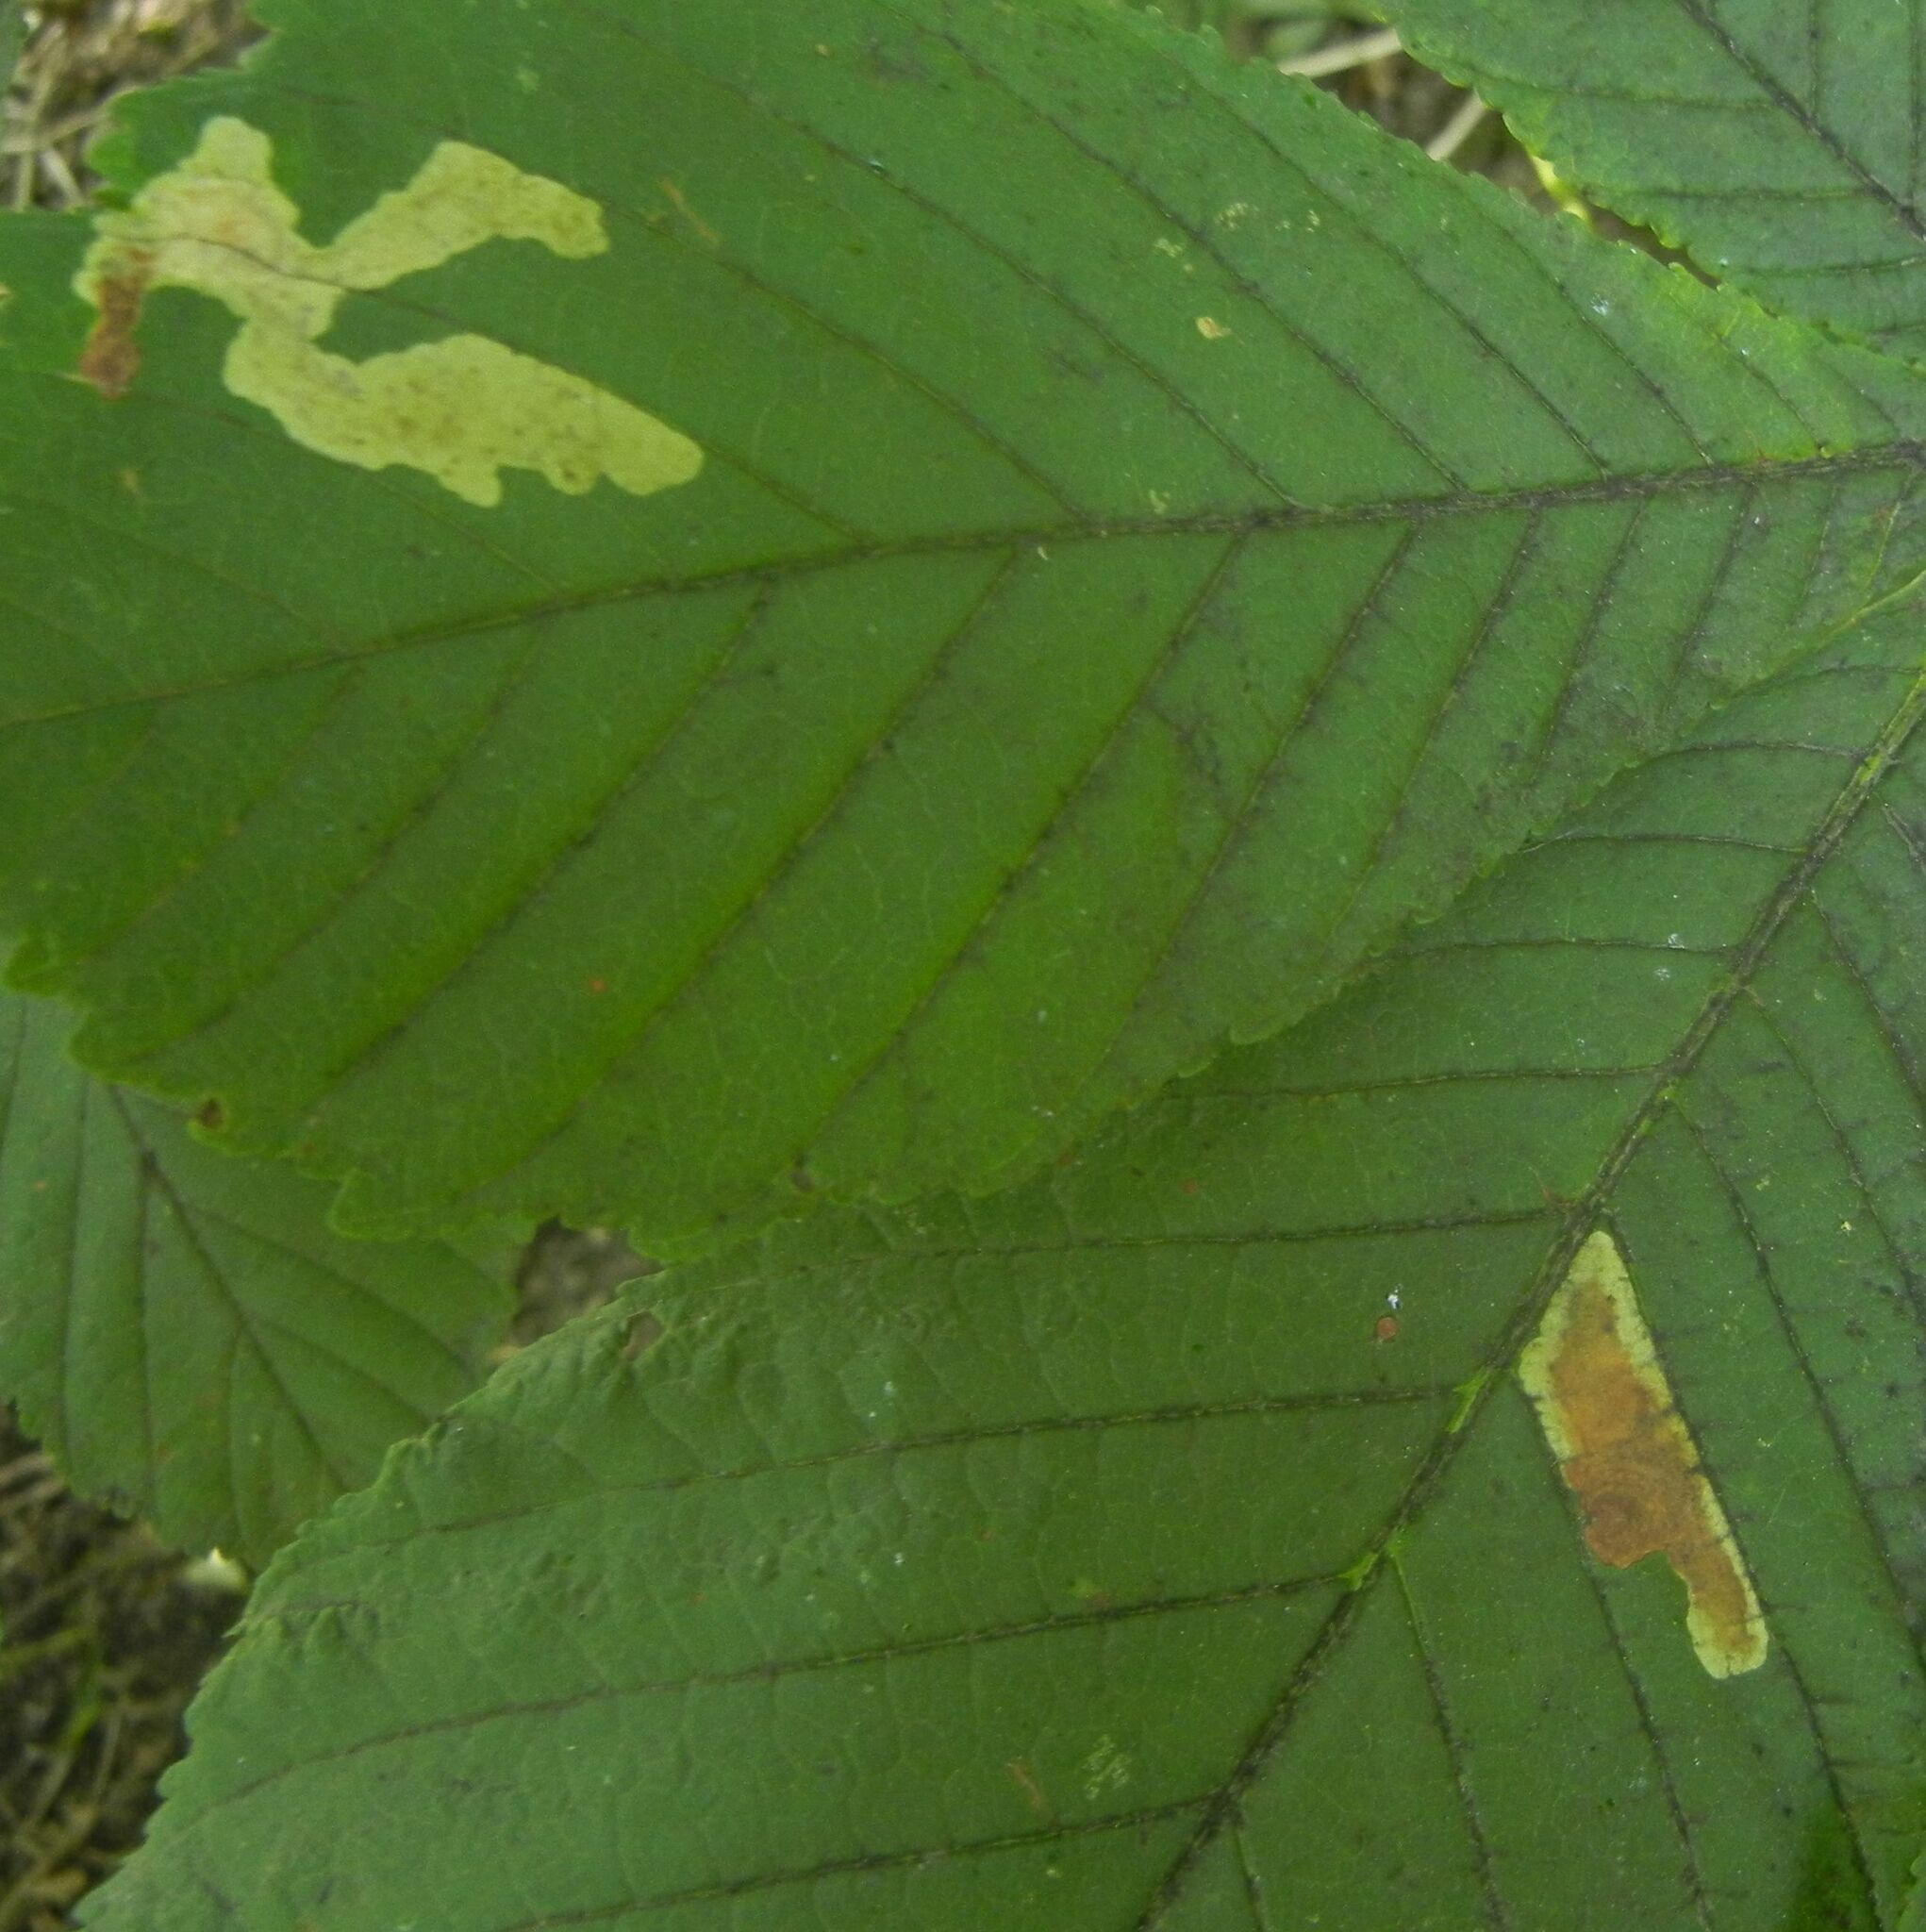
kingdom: Animalia
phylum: Arthropoda
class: Insecta
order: Lepidoptera
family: Gracillariidae
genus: Cameraria
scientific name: Cameraria ohridella
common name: Horse-chestnut leaf-miner
